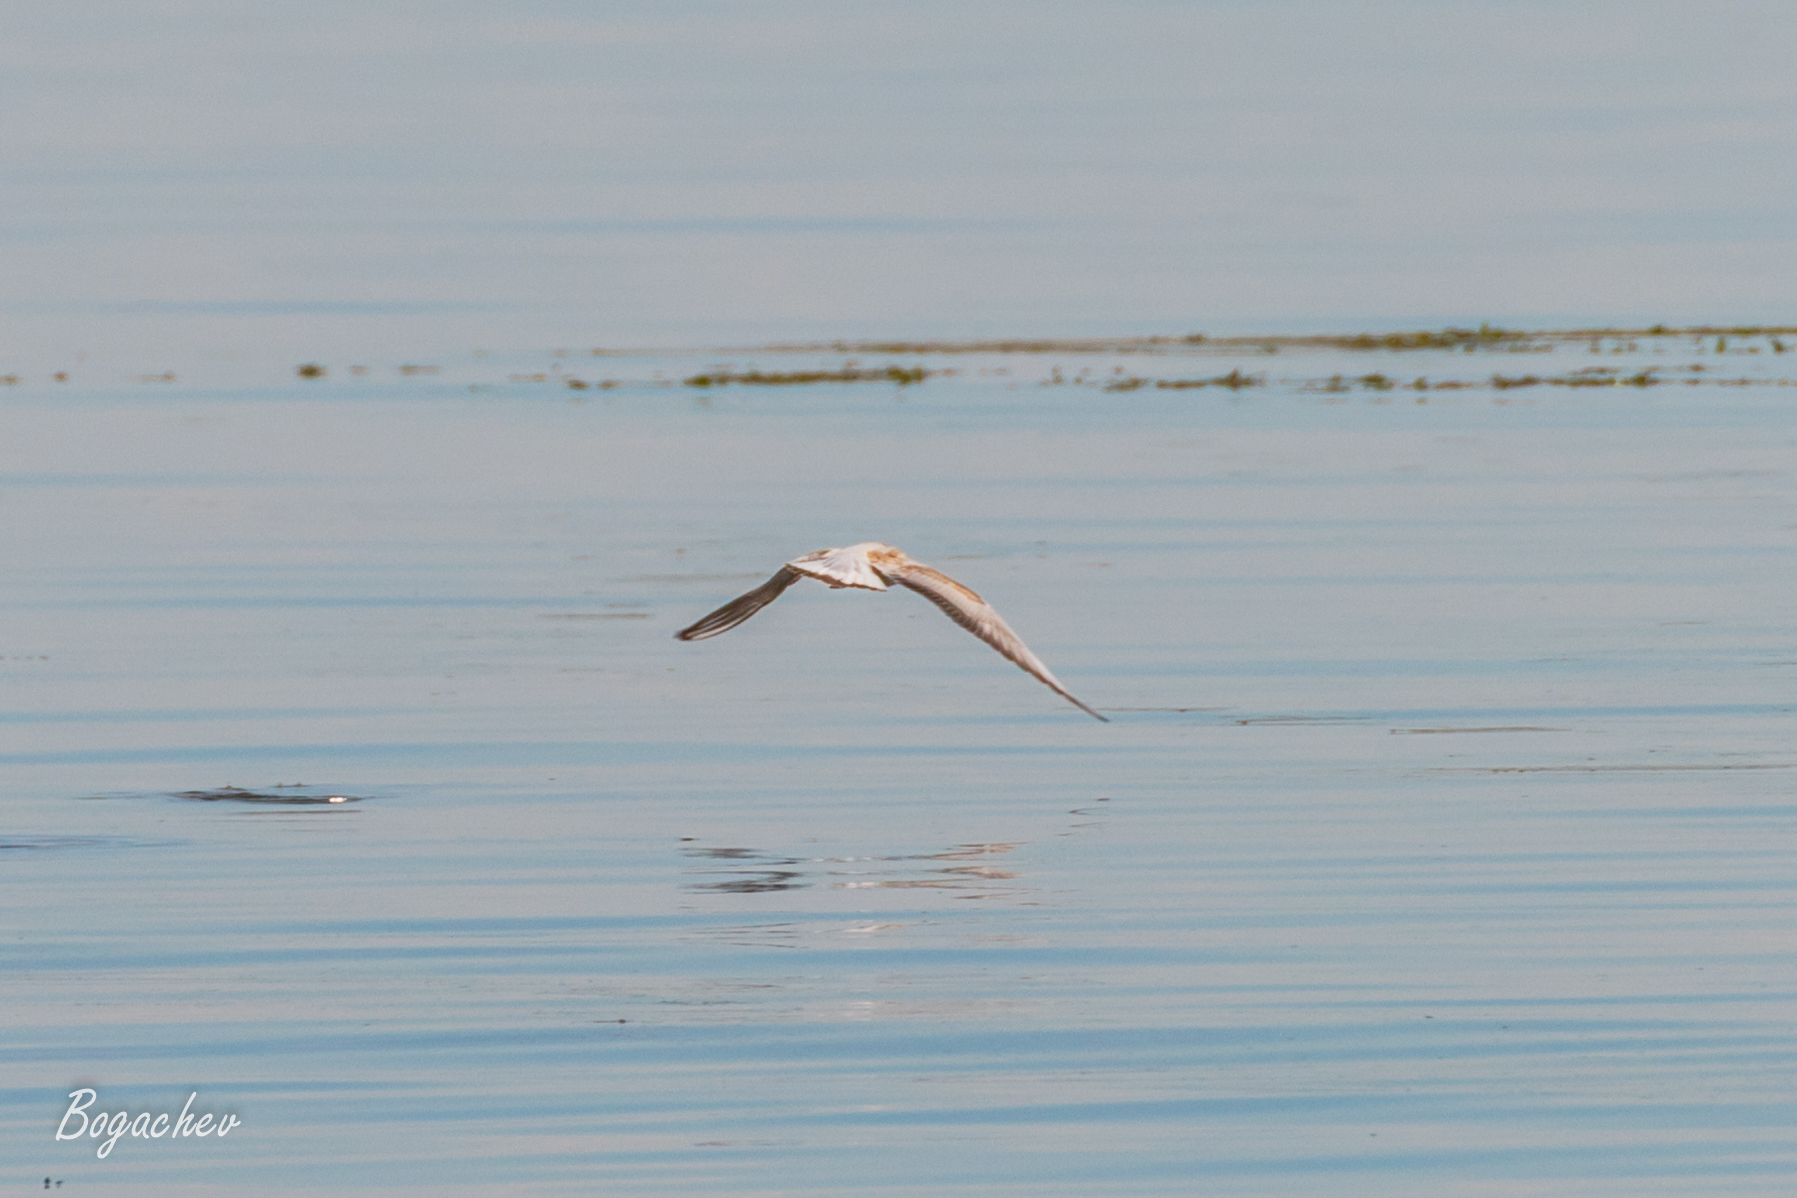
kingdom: Animalia
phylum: Chordata
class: Aves
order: Charadriiformes
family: Laridae
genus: Chroicocephalus
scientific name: Chroicocephalus ridibundus
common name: Black-headed gull
